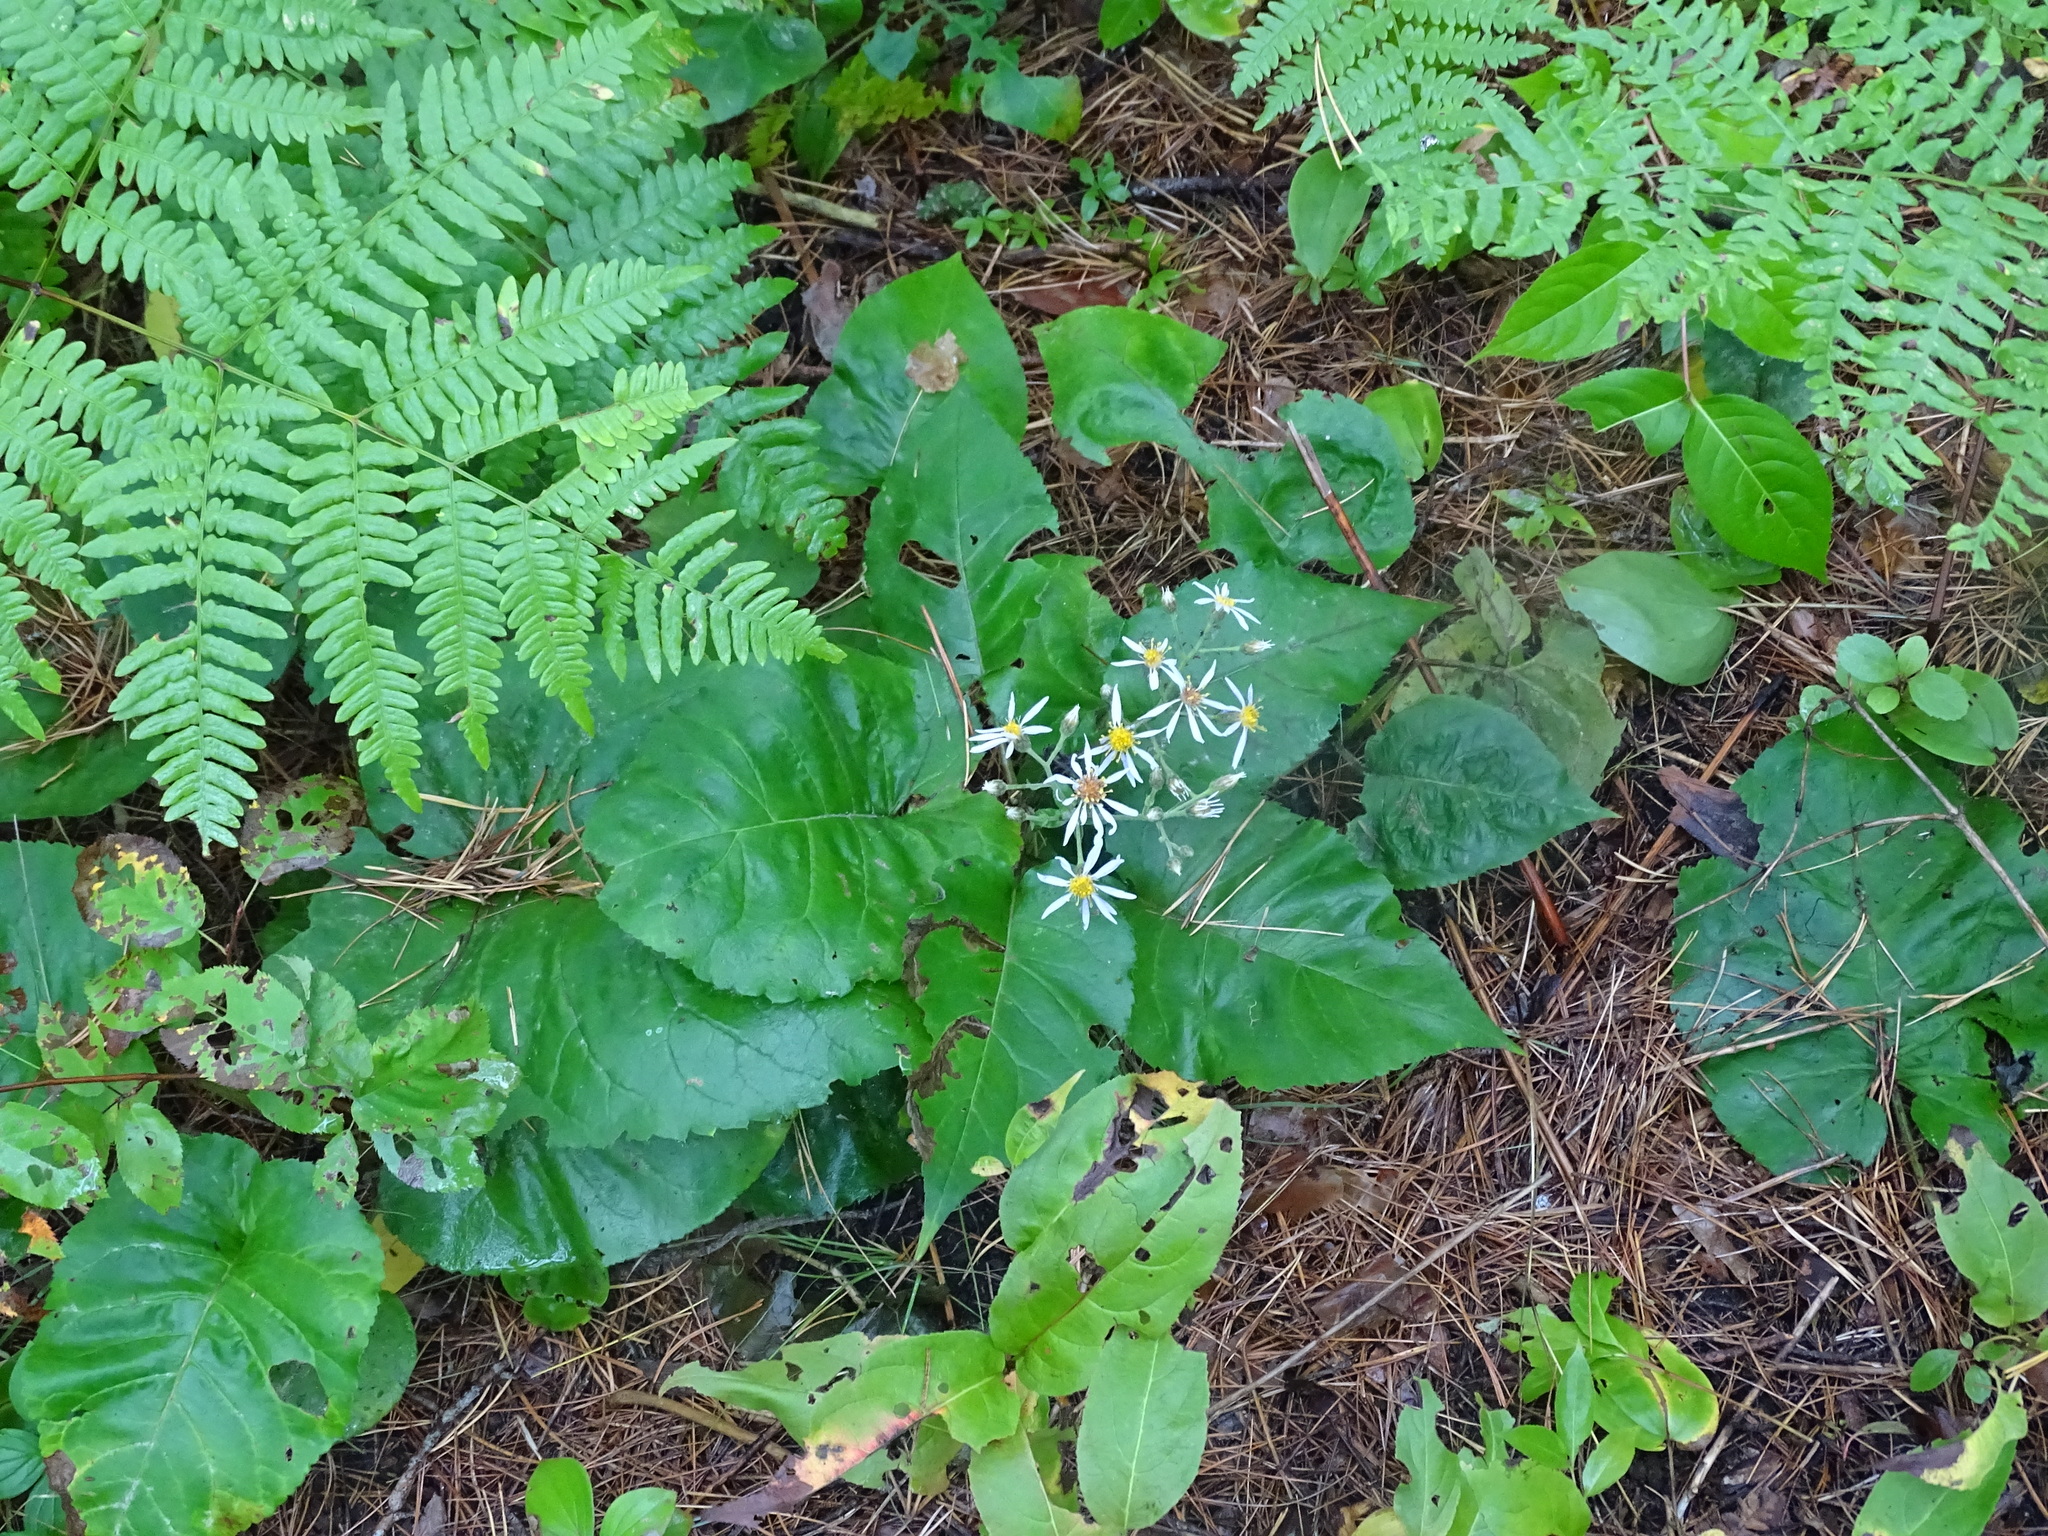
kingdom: Plantae
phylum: Tracheophyta
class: Magnoliopsida
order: Asterales
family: Asteraceae
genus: Eurybia
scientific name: Eurybia macrophylla
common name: Big-leaved aster
